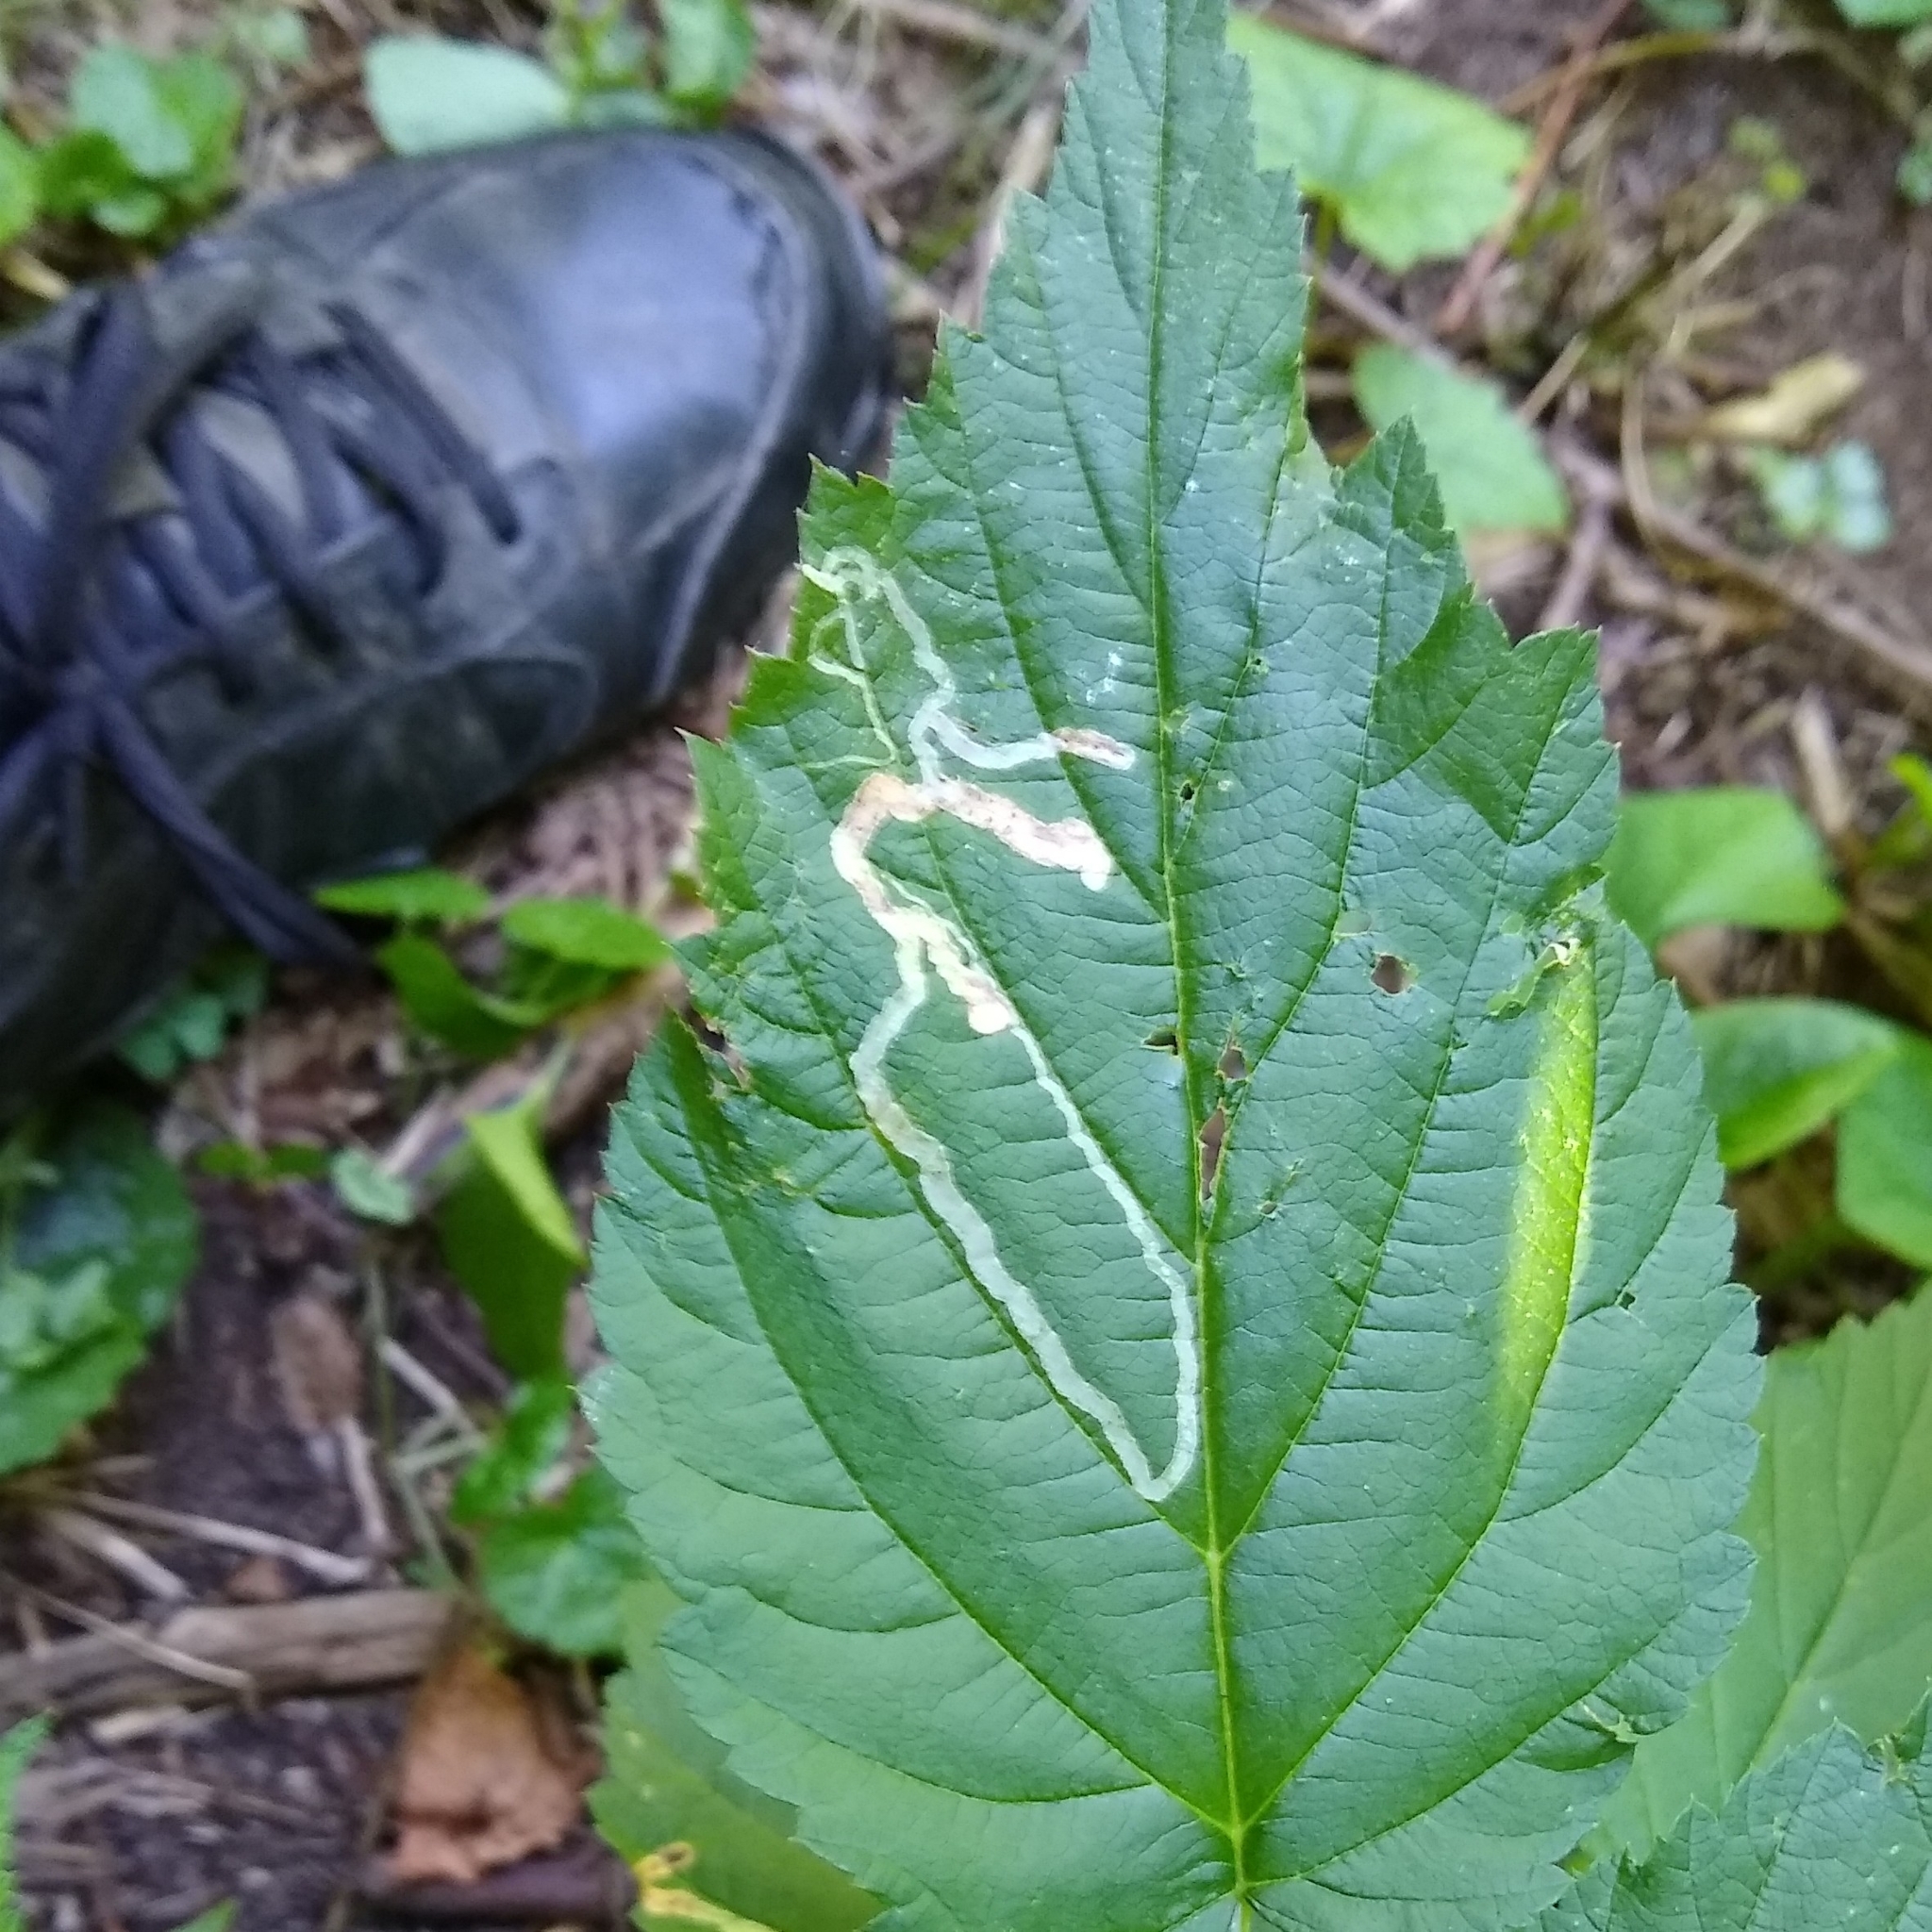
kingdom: Animalia
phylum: Arthropoda
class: Insecta
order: Diptera
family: Agromyzidae
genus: Agromyza
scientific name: Agromyza vockerothi
